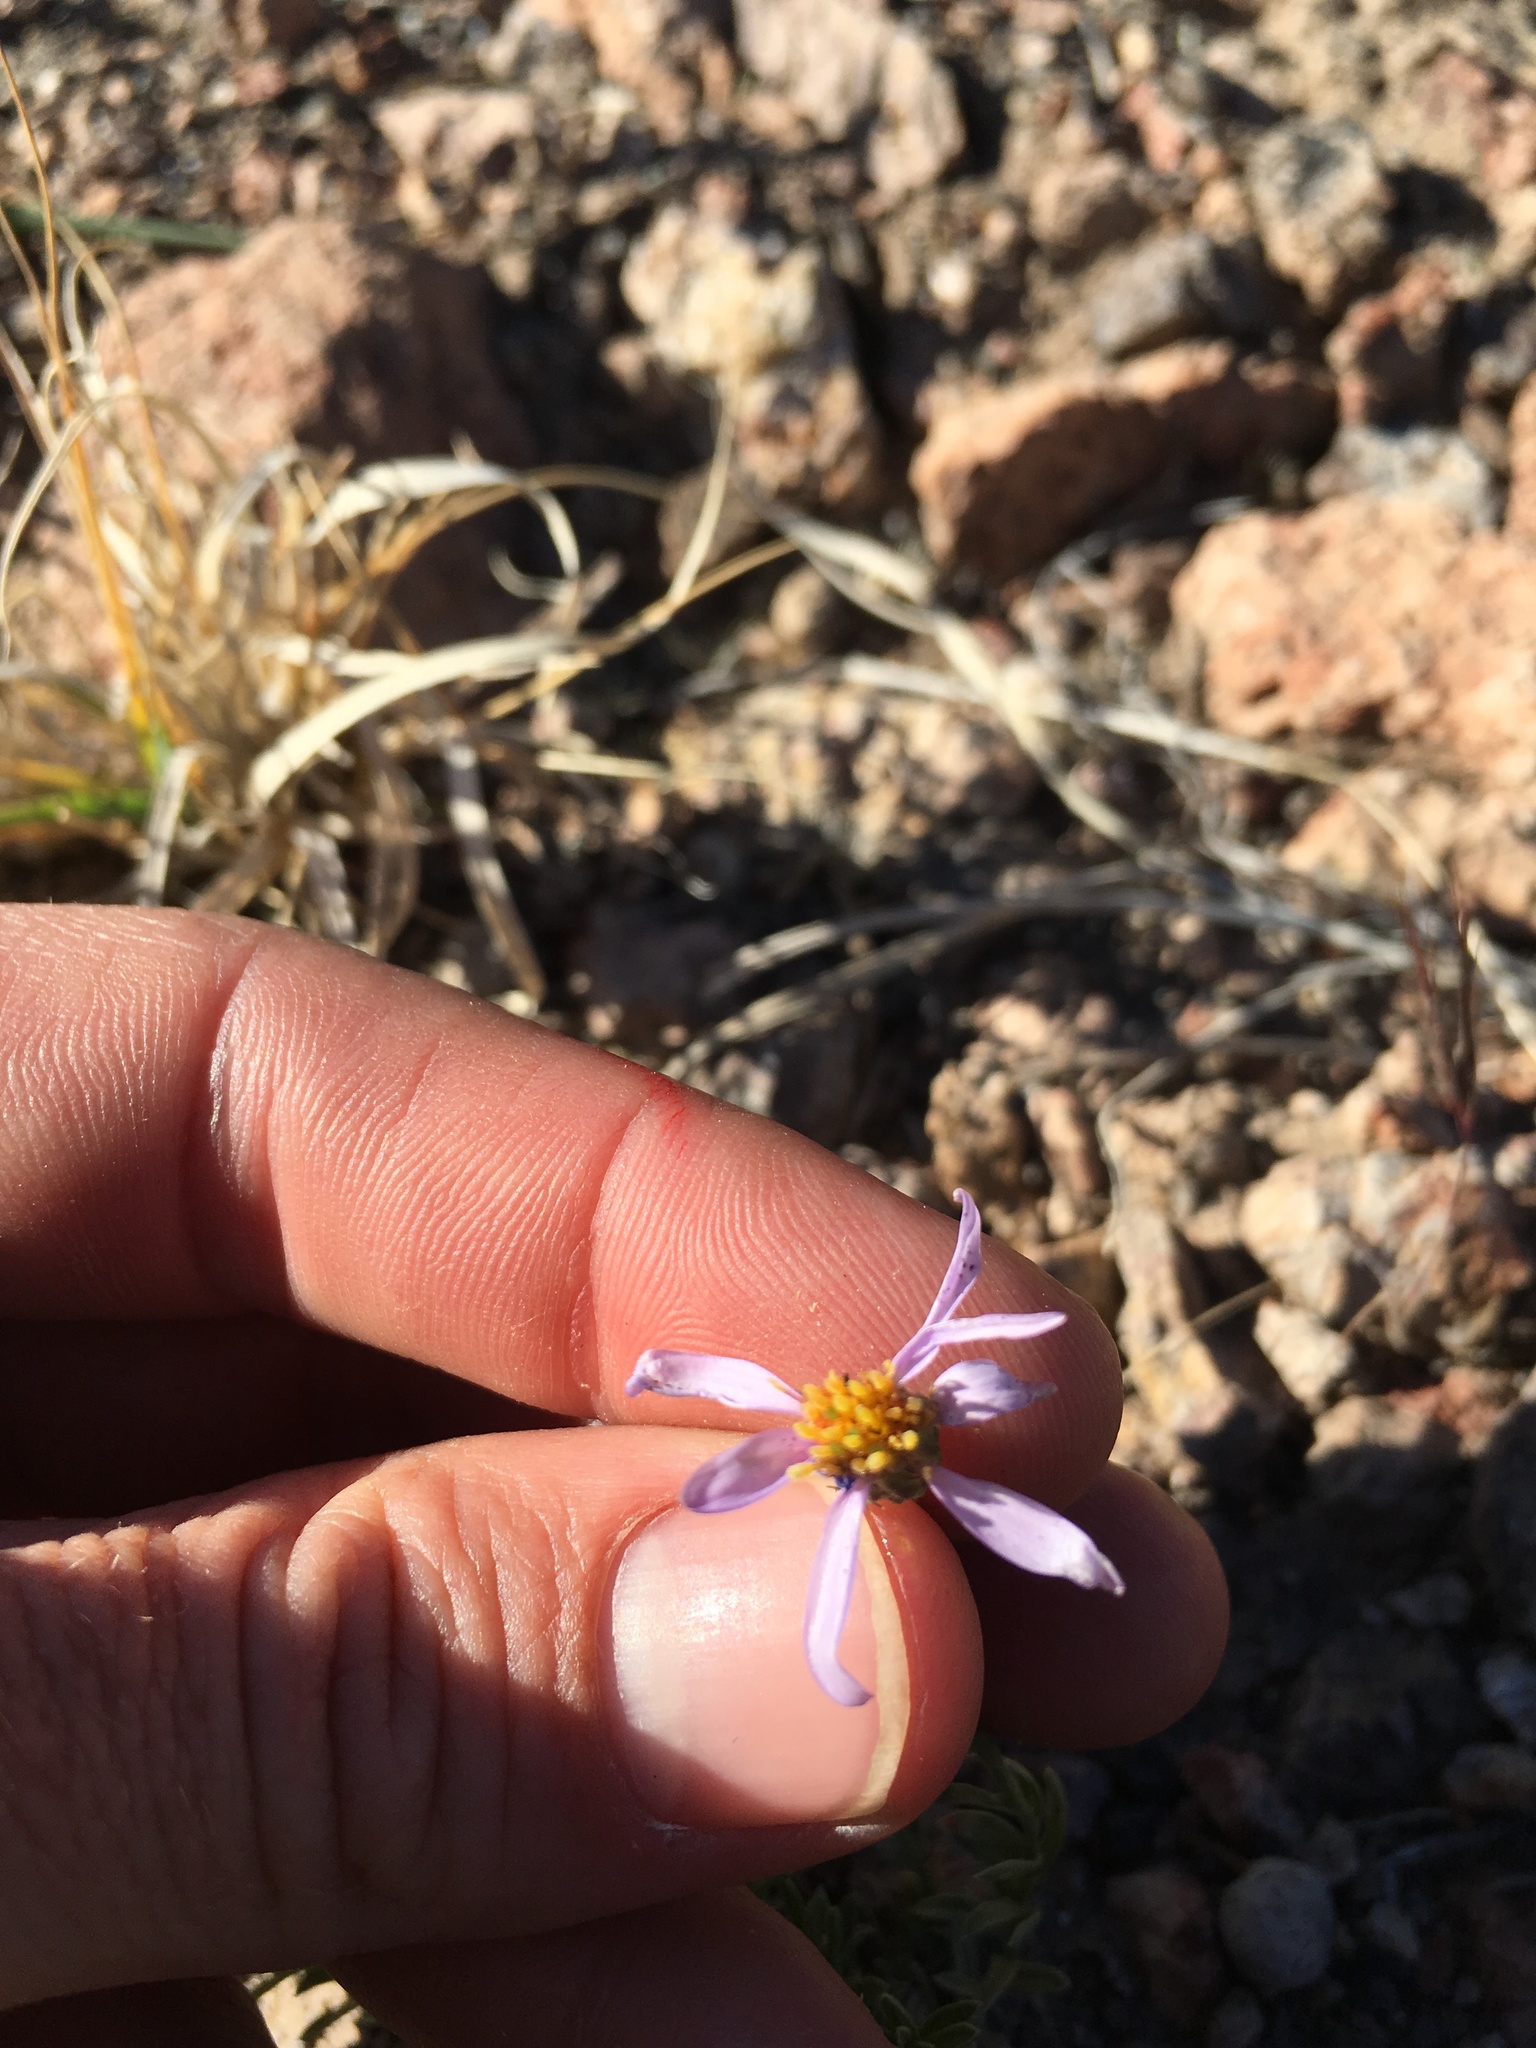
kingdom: Plantae
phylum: Tracheophyta
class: Magnoliopsida
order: Asterales
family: Asteraceae
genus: Ionactis
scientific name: Ionactis alpina
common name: Crag aster
